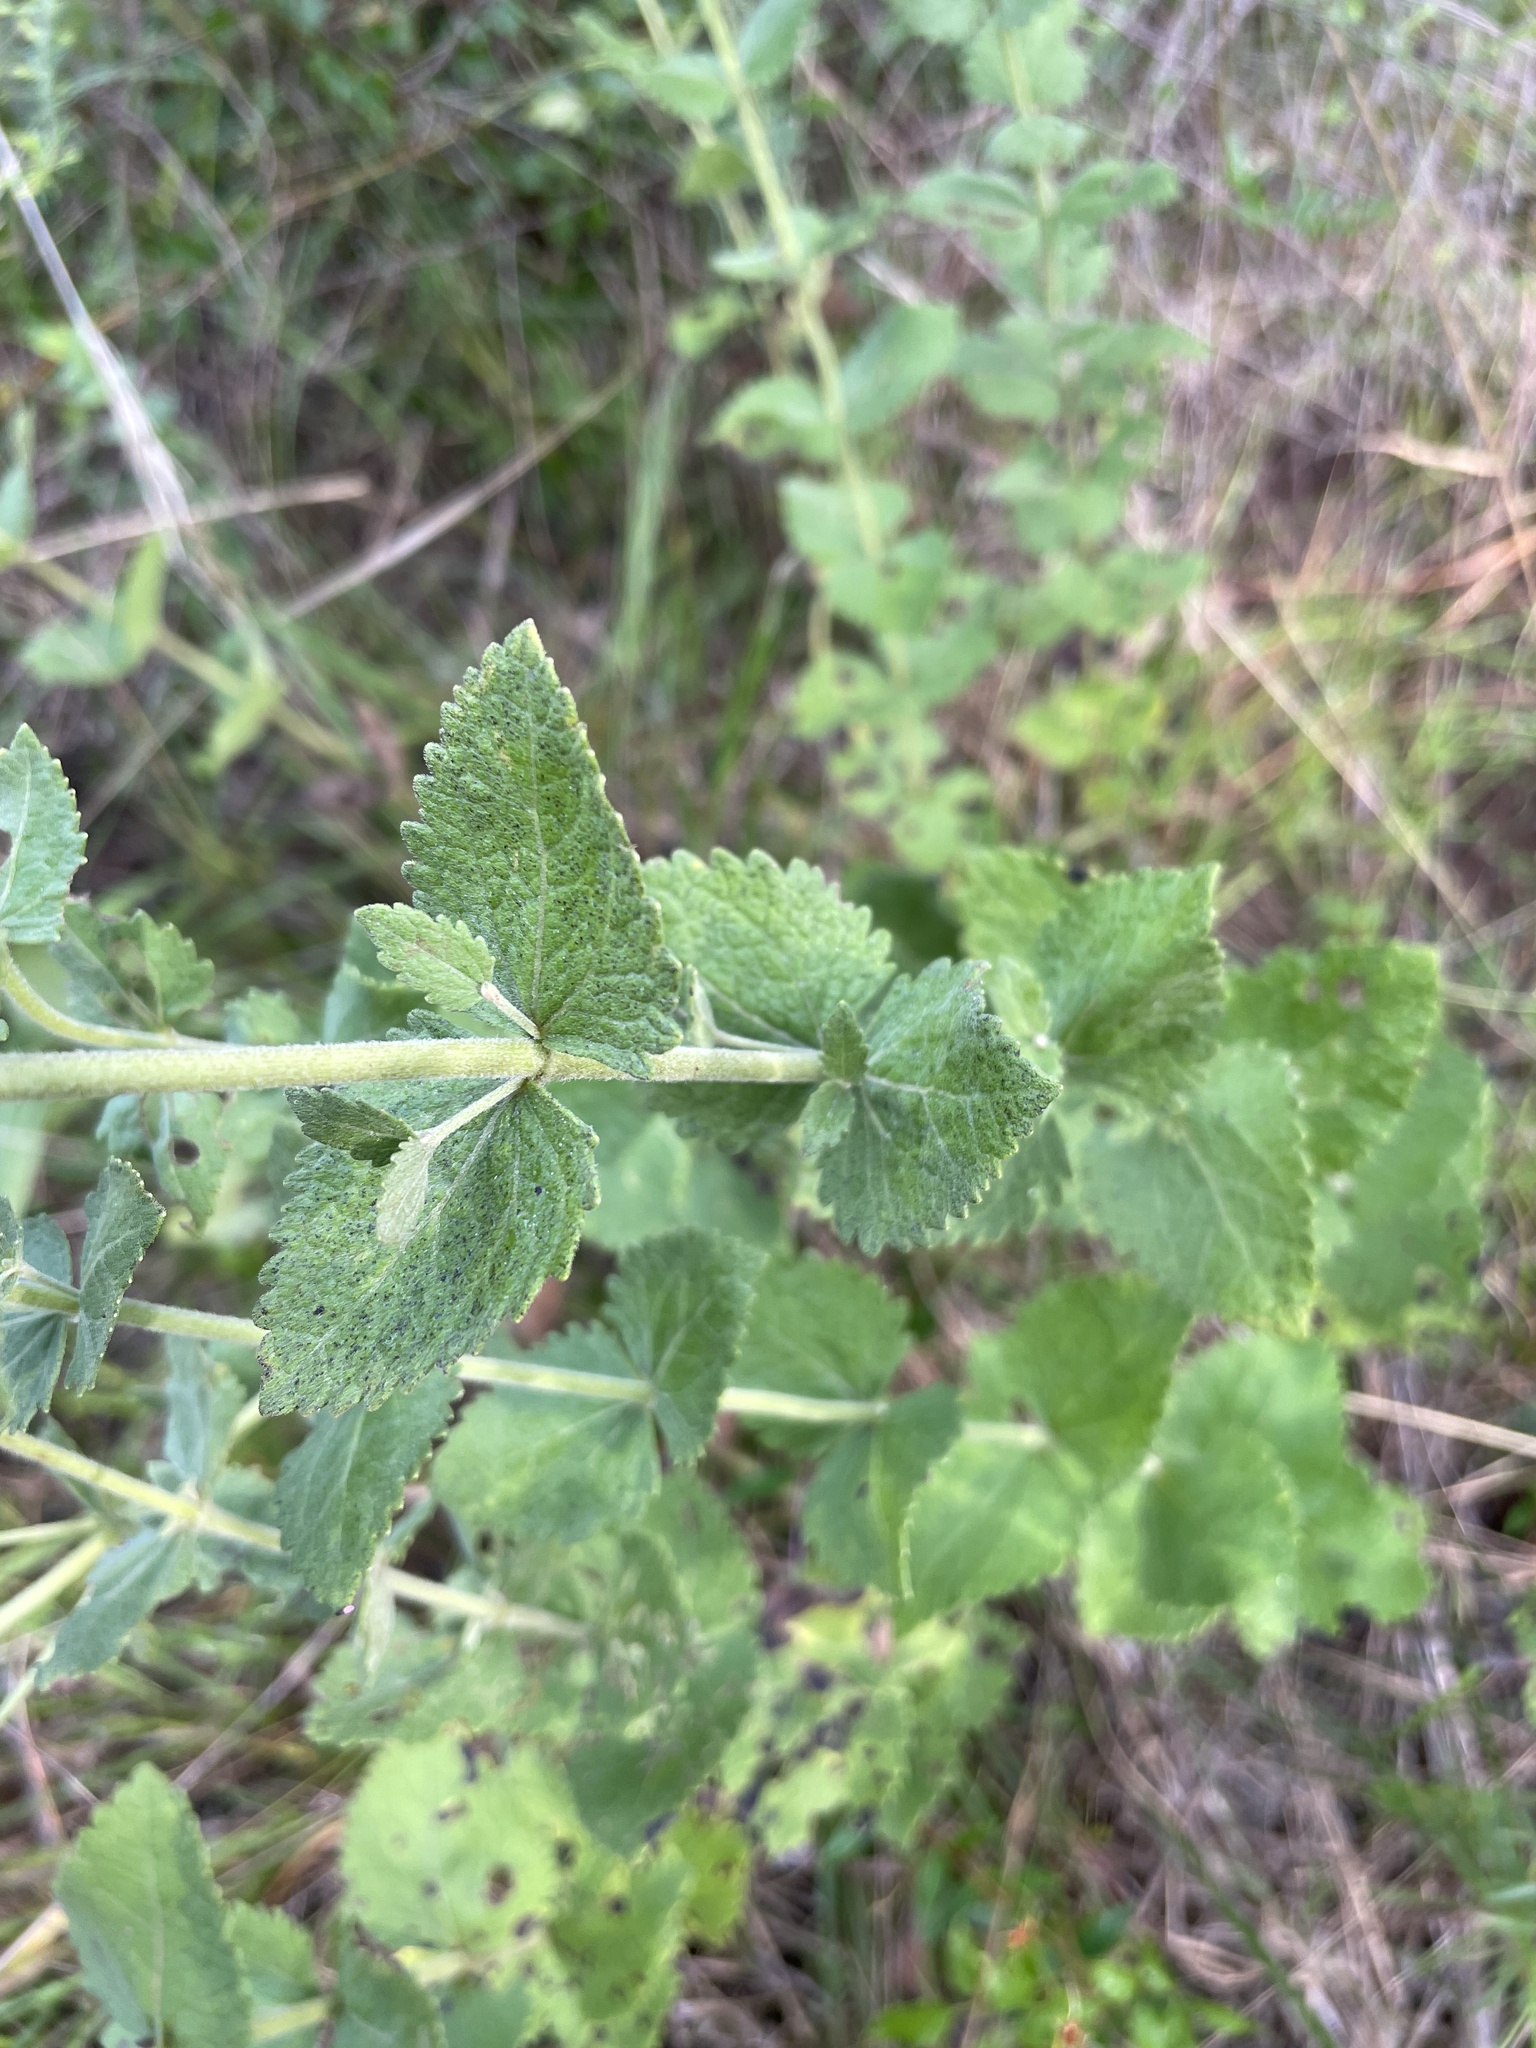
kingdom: Plantae
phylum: Tracheophyta
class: Magnoliopsida
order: Asterales
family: Asteraceae
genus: Eupatorium
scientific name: Eupatorium rotundifolium
